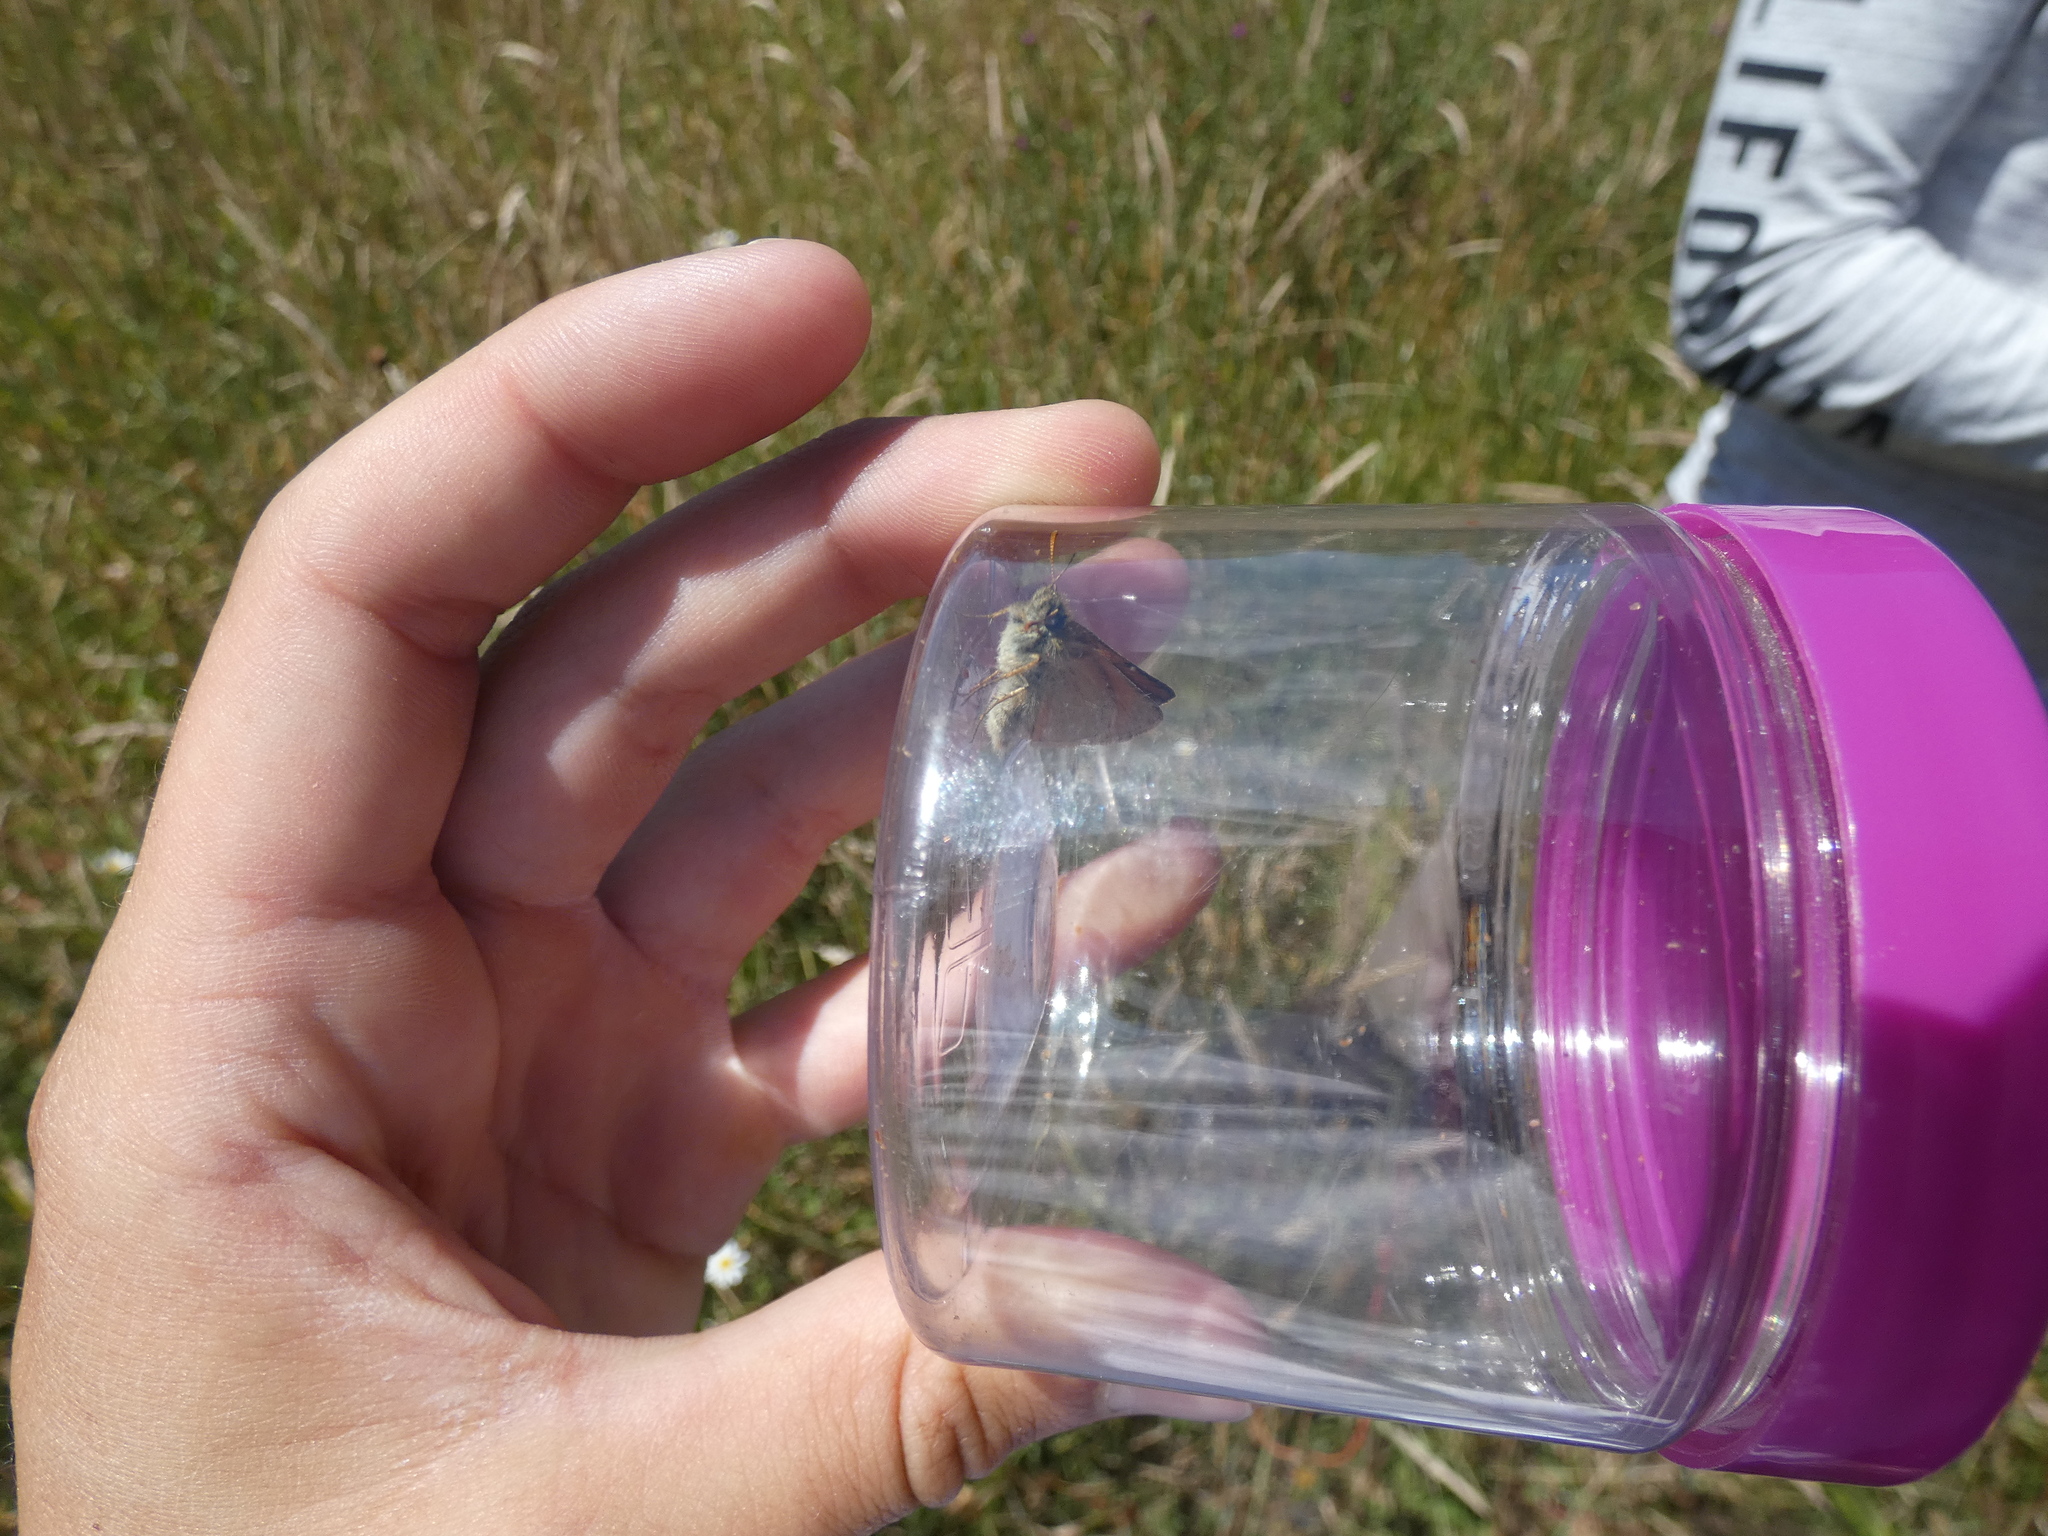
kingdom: Animalia
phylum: Arthropoda
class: Insecta
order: Lepidoptera
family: Hesperiidae
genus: Thymelicus
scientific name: Thymelicus sylvestris
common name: Small skipper
